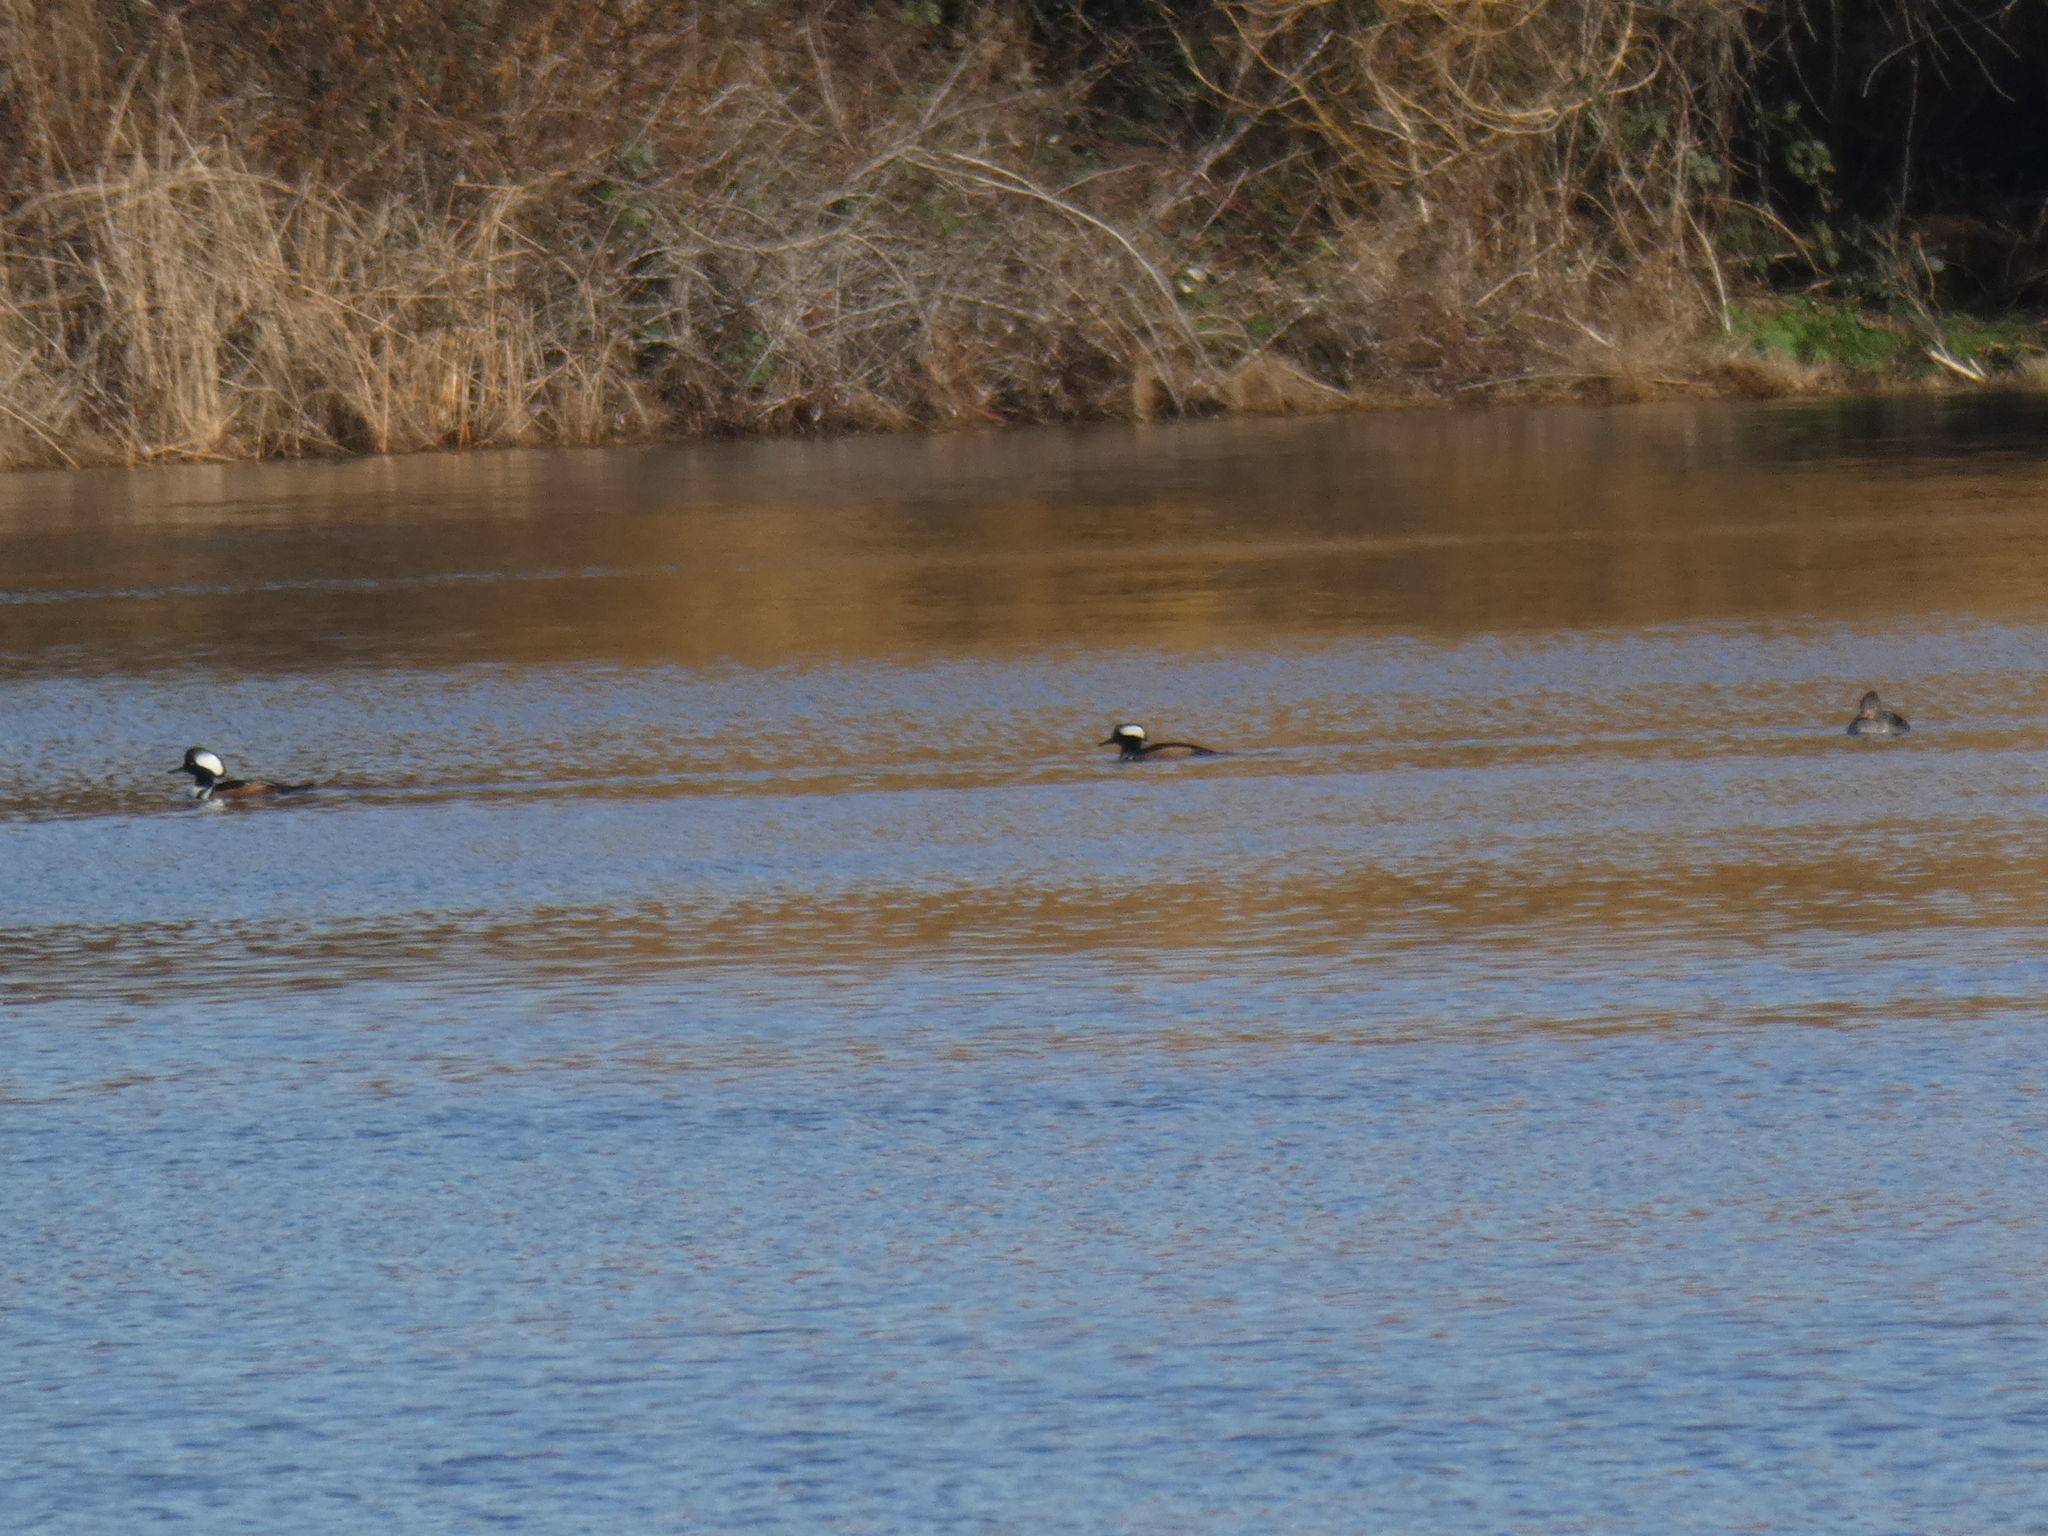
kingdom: Animalia
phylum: Chordata
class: Aves
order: Anseriformes
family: Anatidae
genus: Lophodytes
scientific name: Lophodytes cucullatus
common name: Hooded merganser
